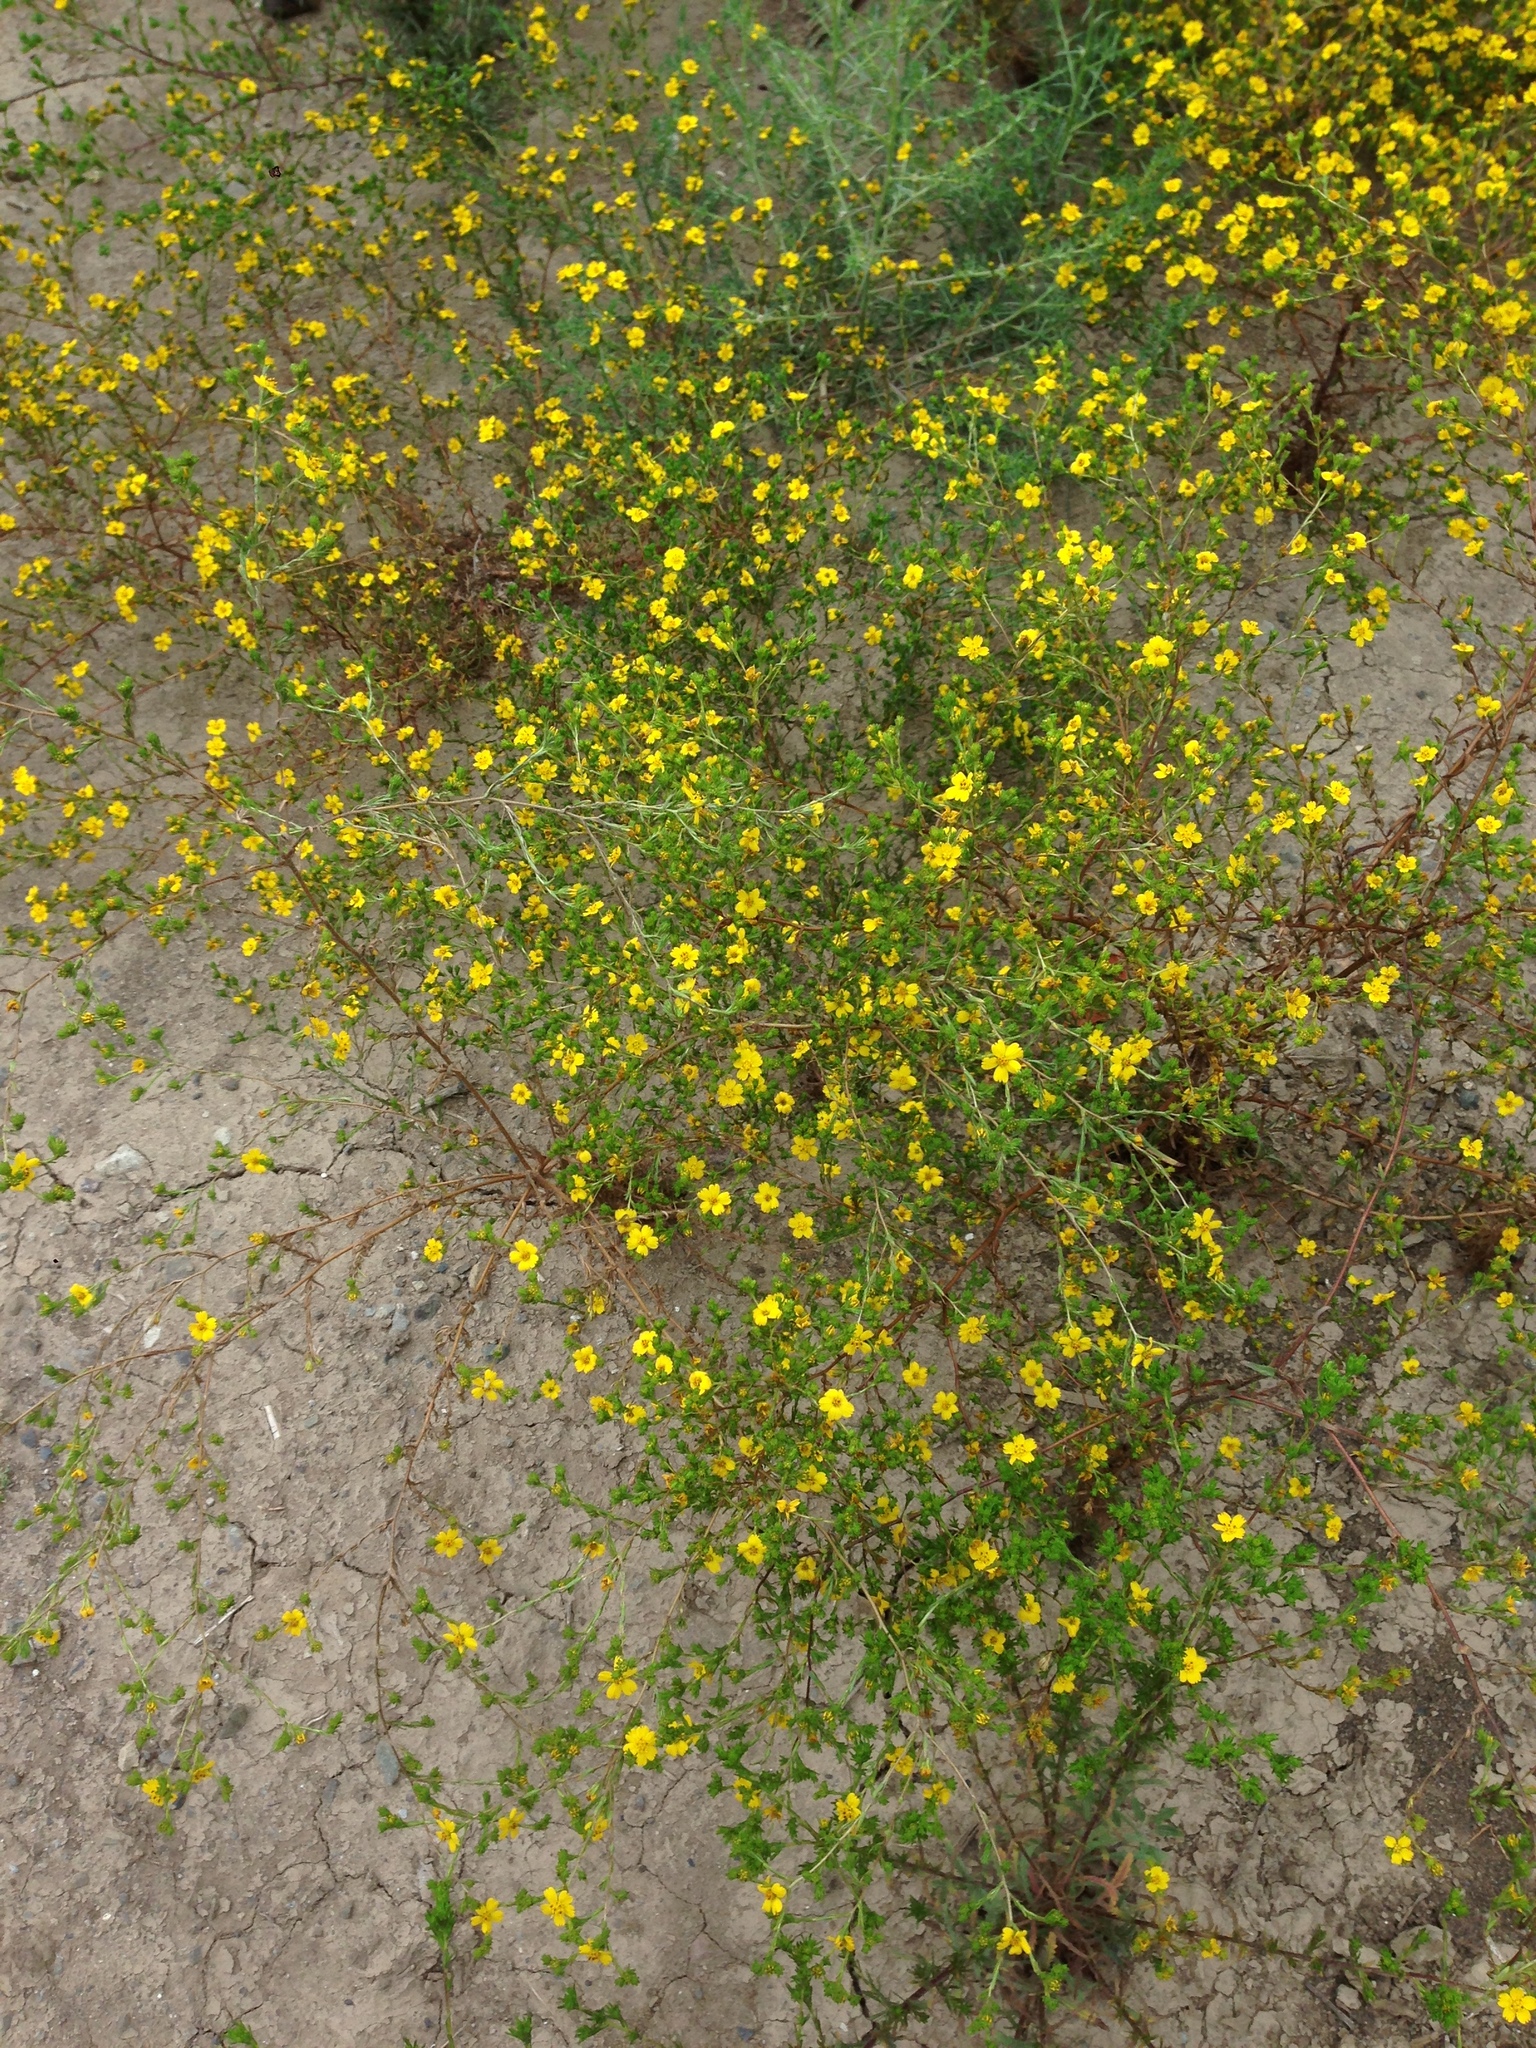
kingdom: Plantae
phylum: Tracheophyta
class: Magnoliopsida
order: Asterales
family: Asteraceae
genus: Deinandra
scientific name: Deinandra fasciculata
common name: Clustered tarweed
